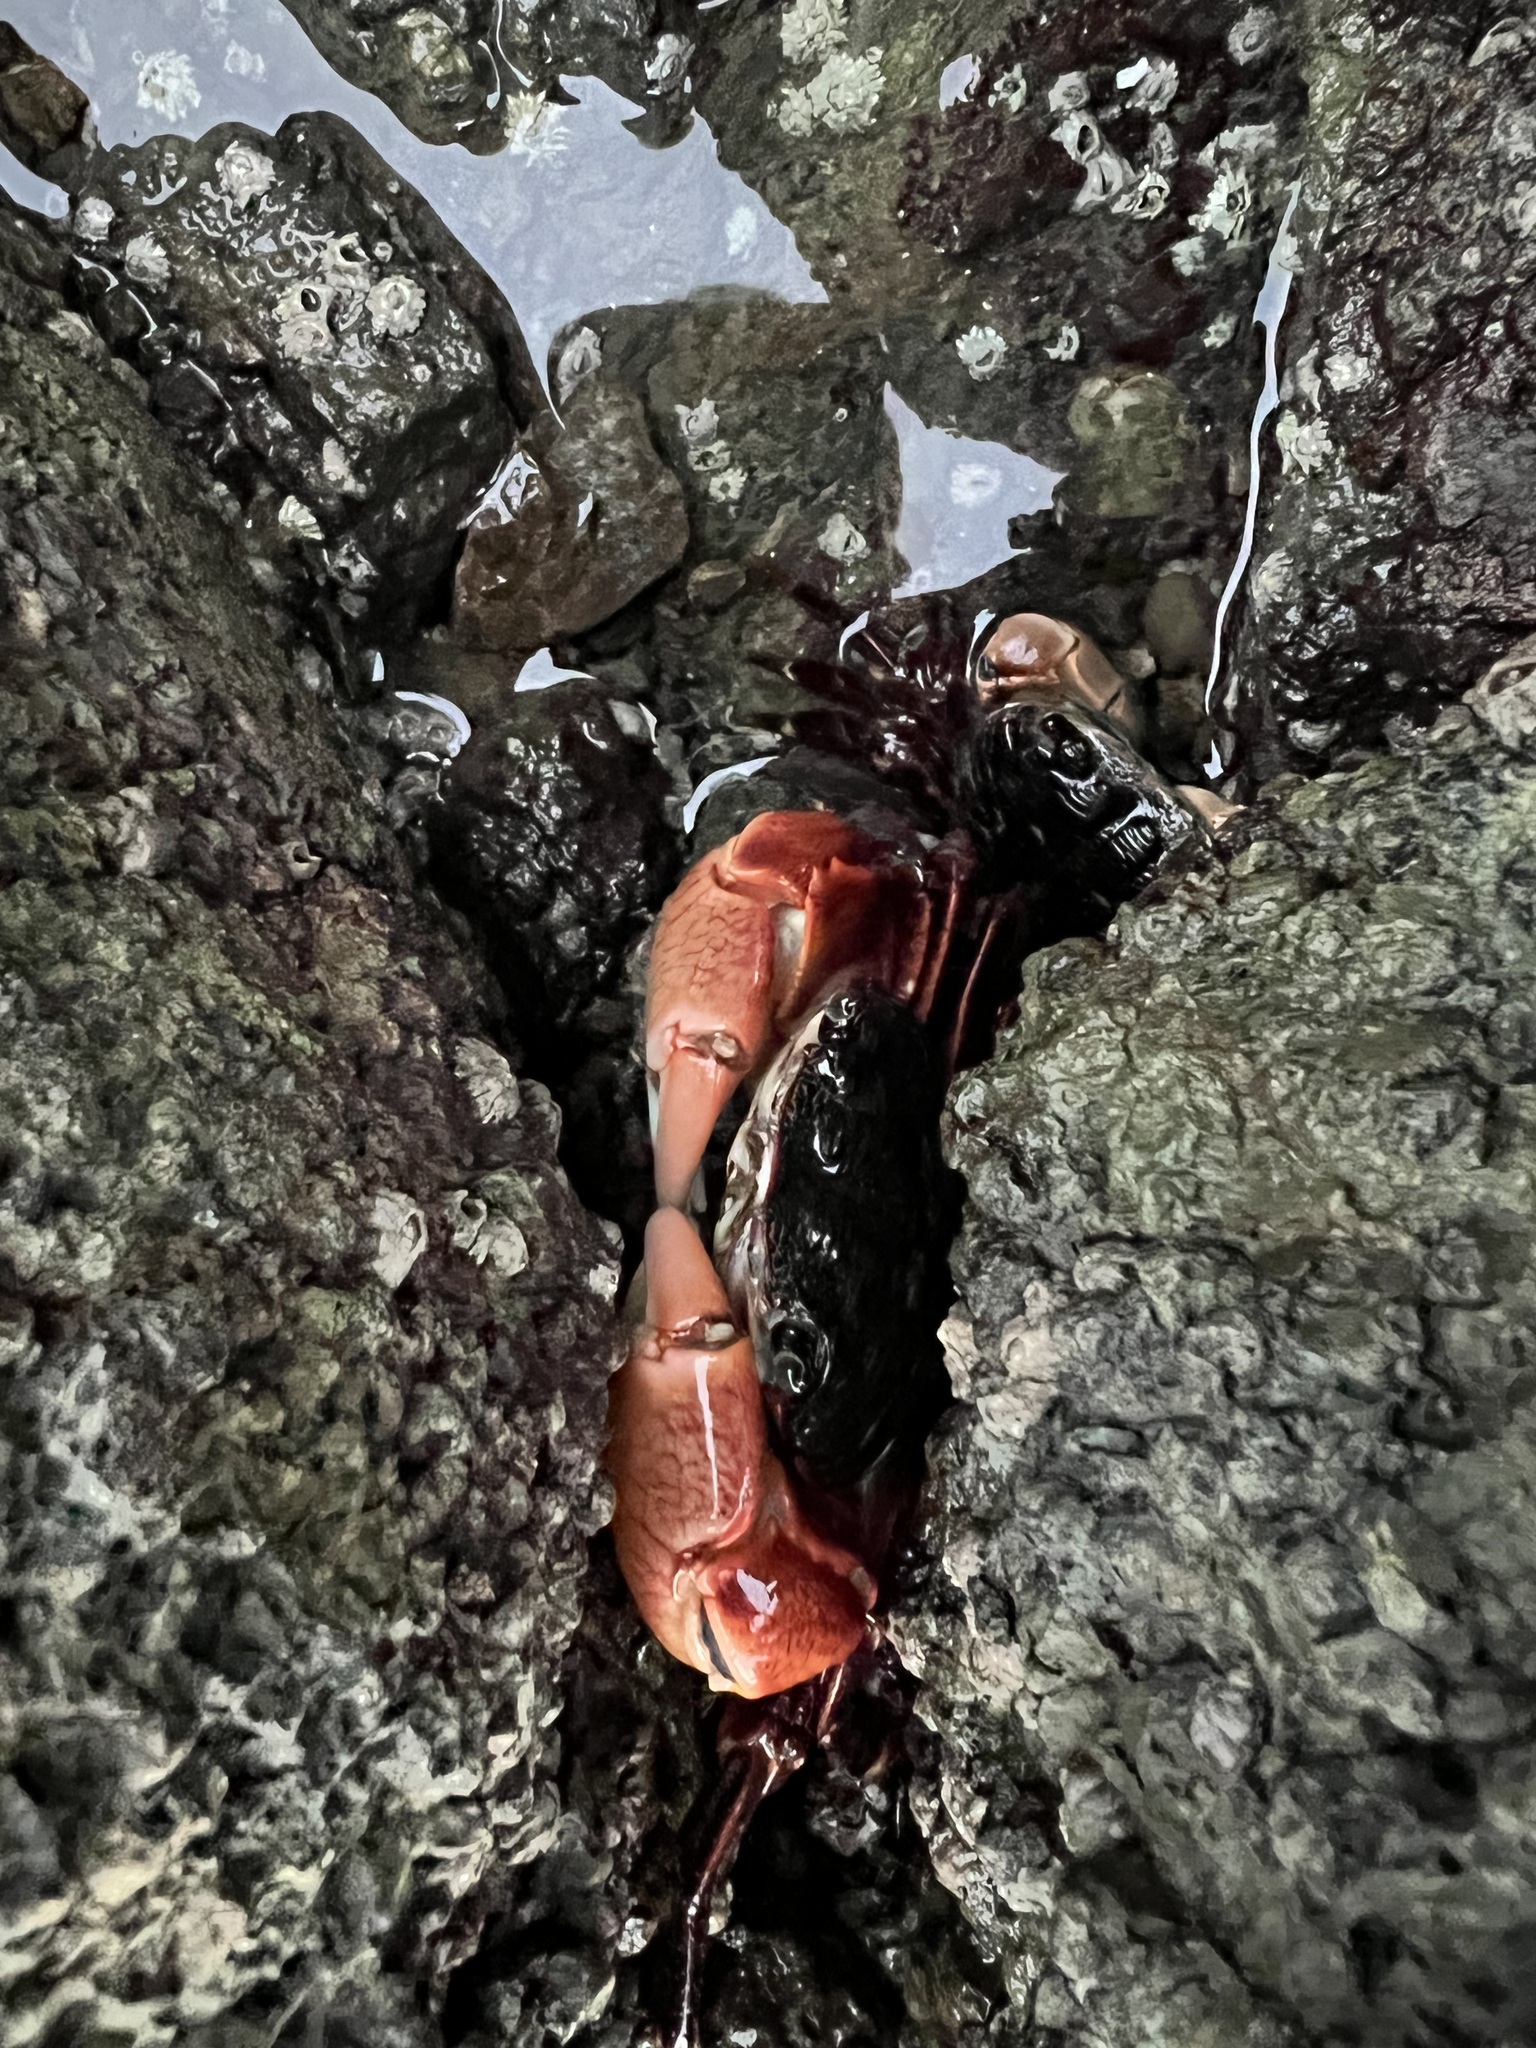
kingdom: Animalia
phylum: Arthropoda
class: Malacostraca
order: Decapoda
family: Grapsidae
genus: Pachygrapsus
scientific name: Pachygrapsus crassipes
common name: Striped shore crab
